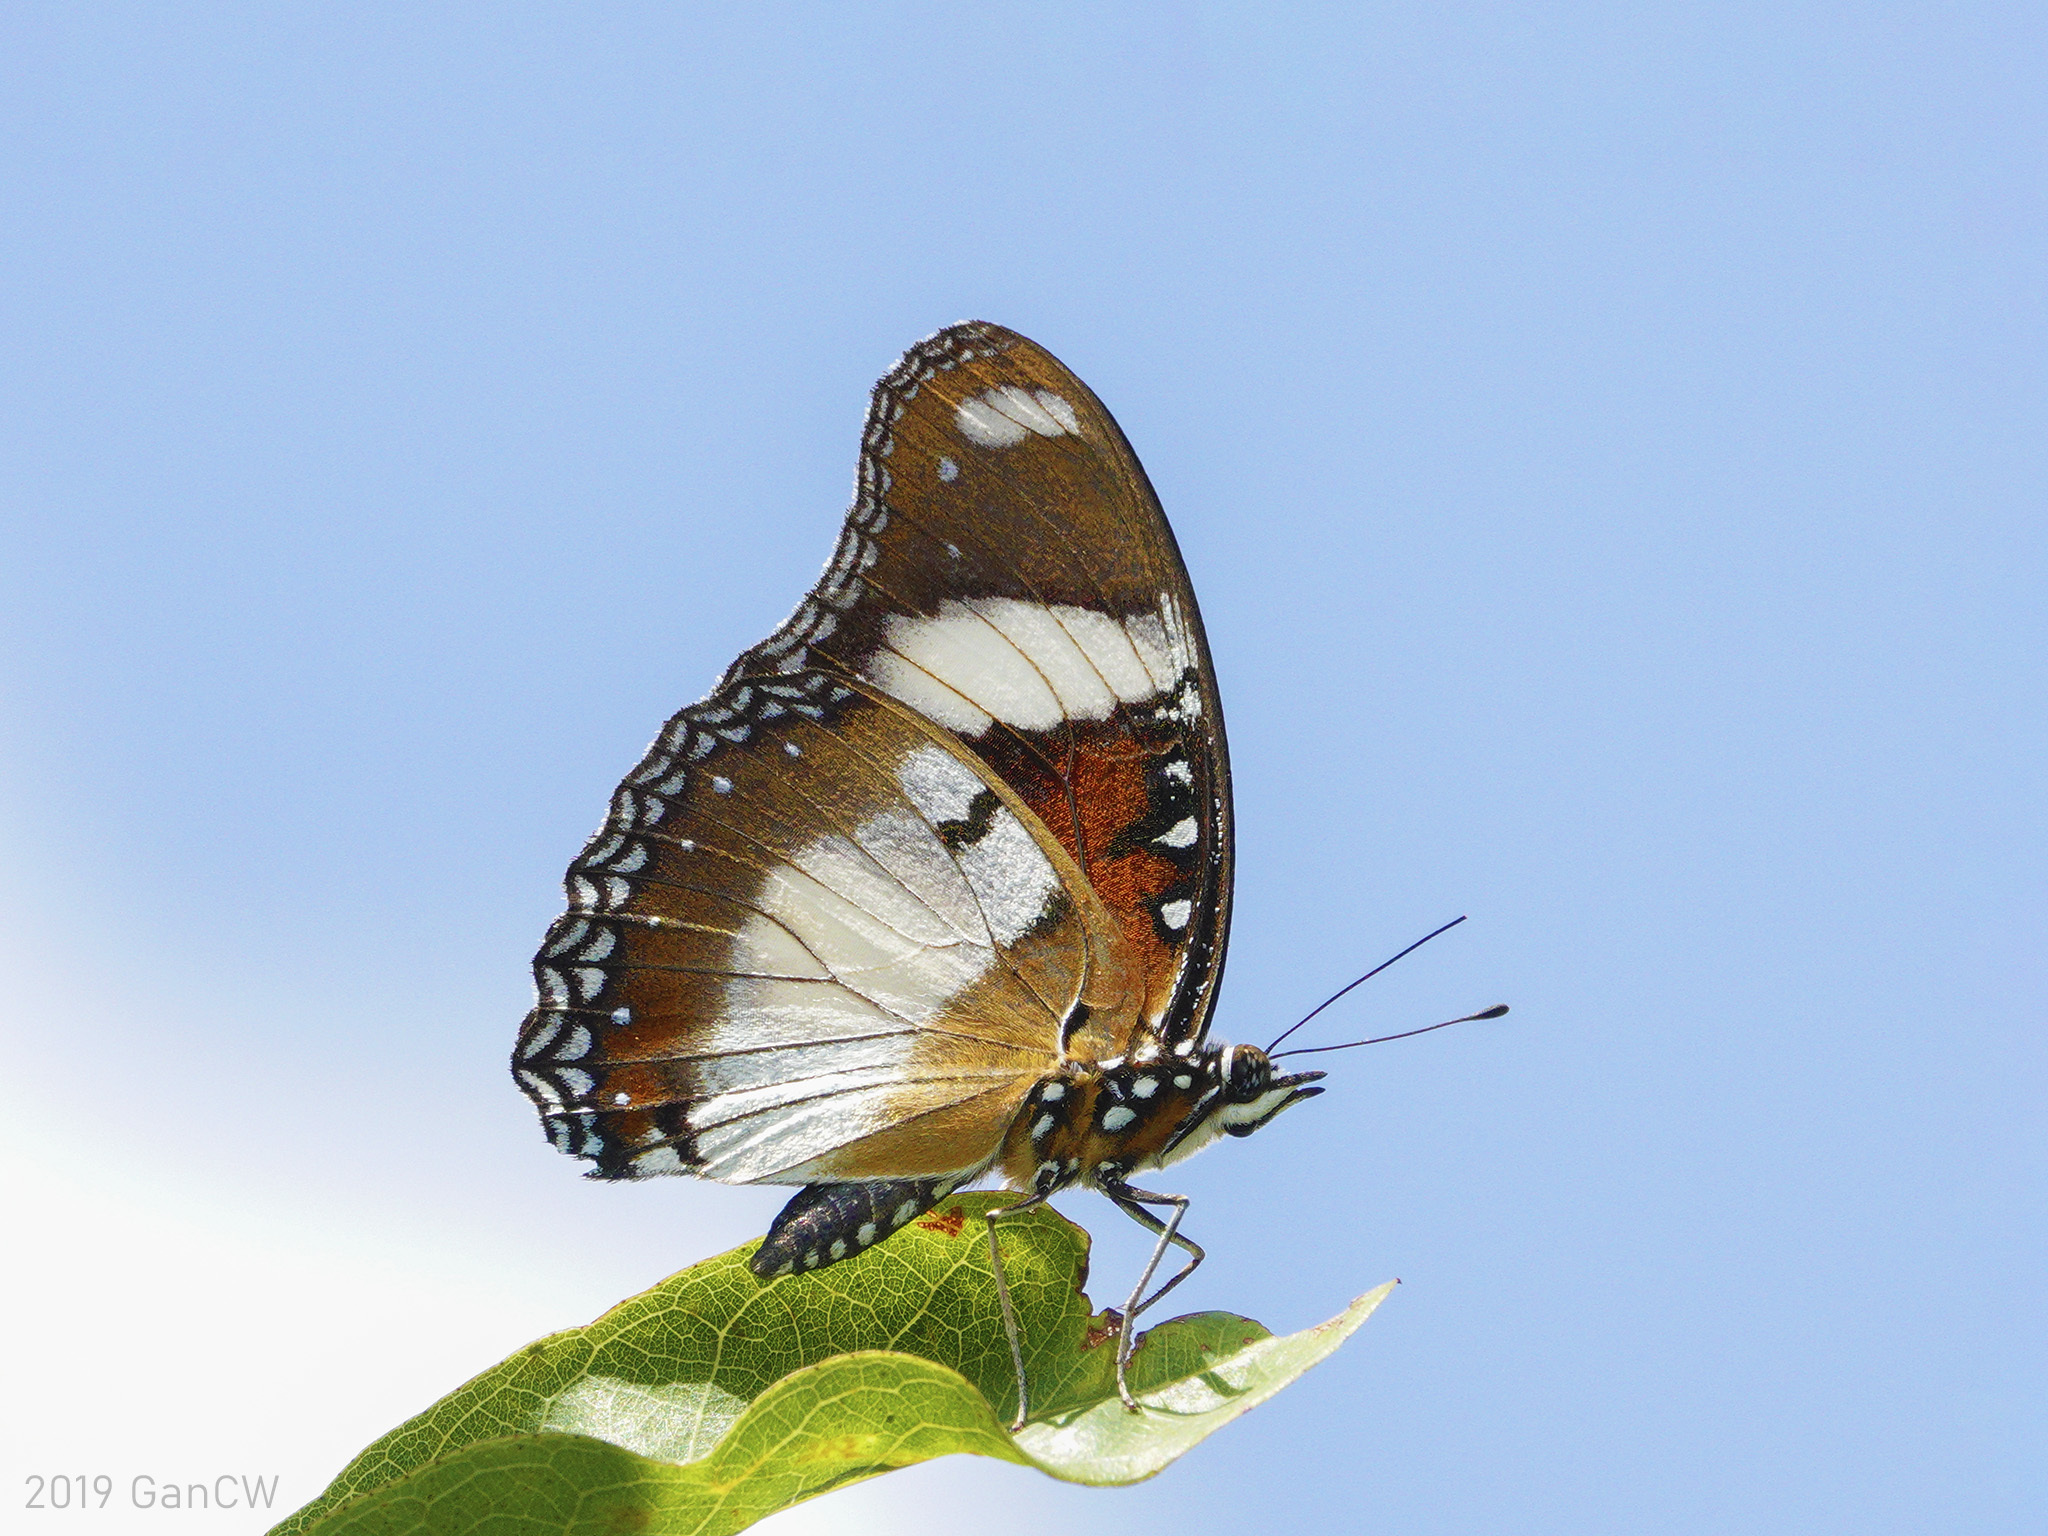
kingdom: Animalia
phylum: Arthropoda
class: Insecta
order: Lepidoptera
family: Nymphalidae
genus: Hypolimnas
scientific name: Hypolimnas misippus
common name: False plain tiger
